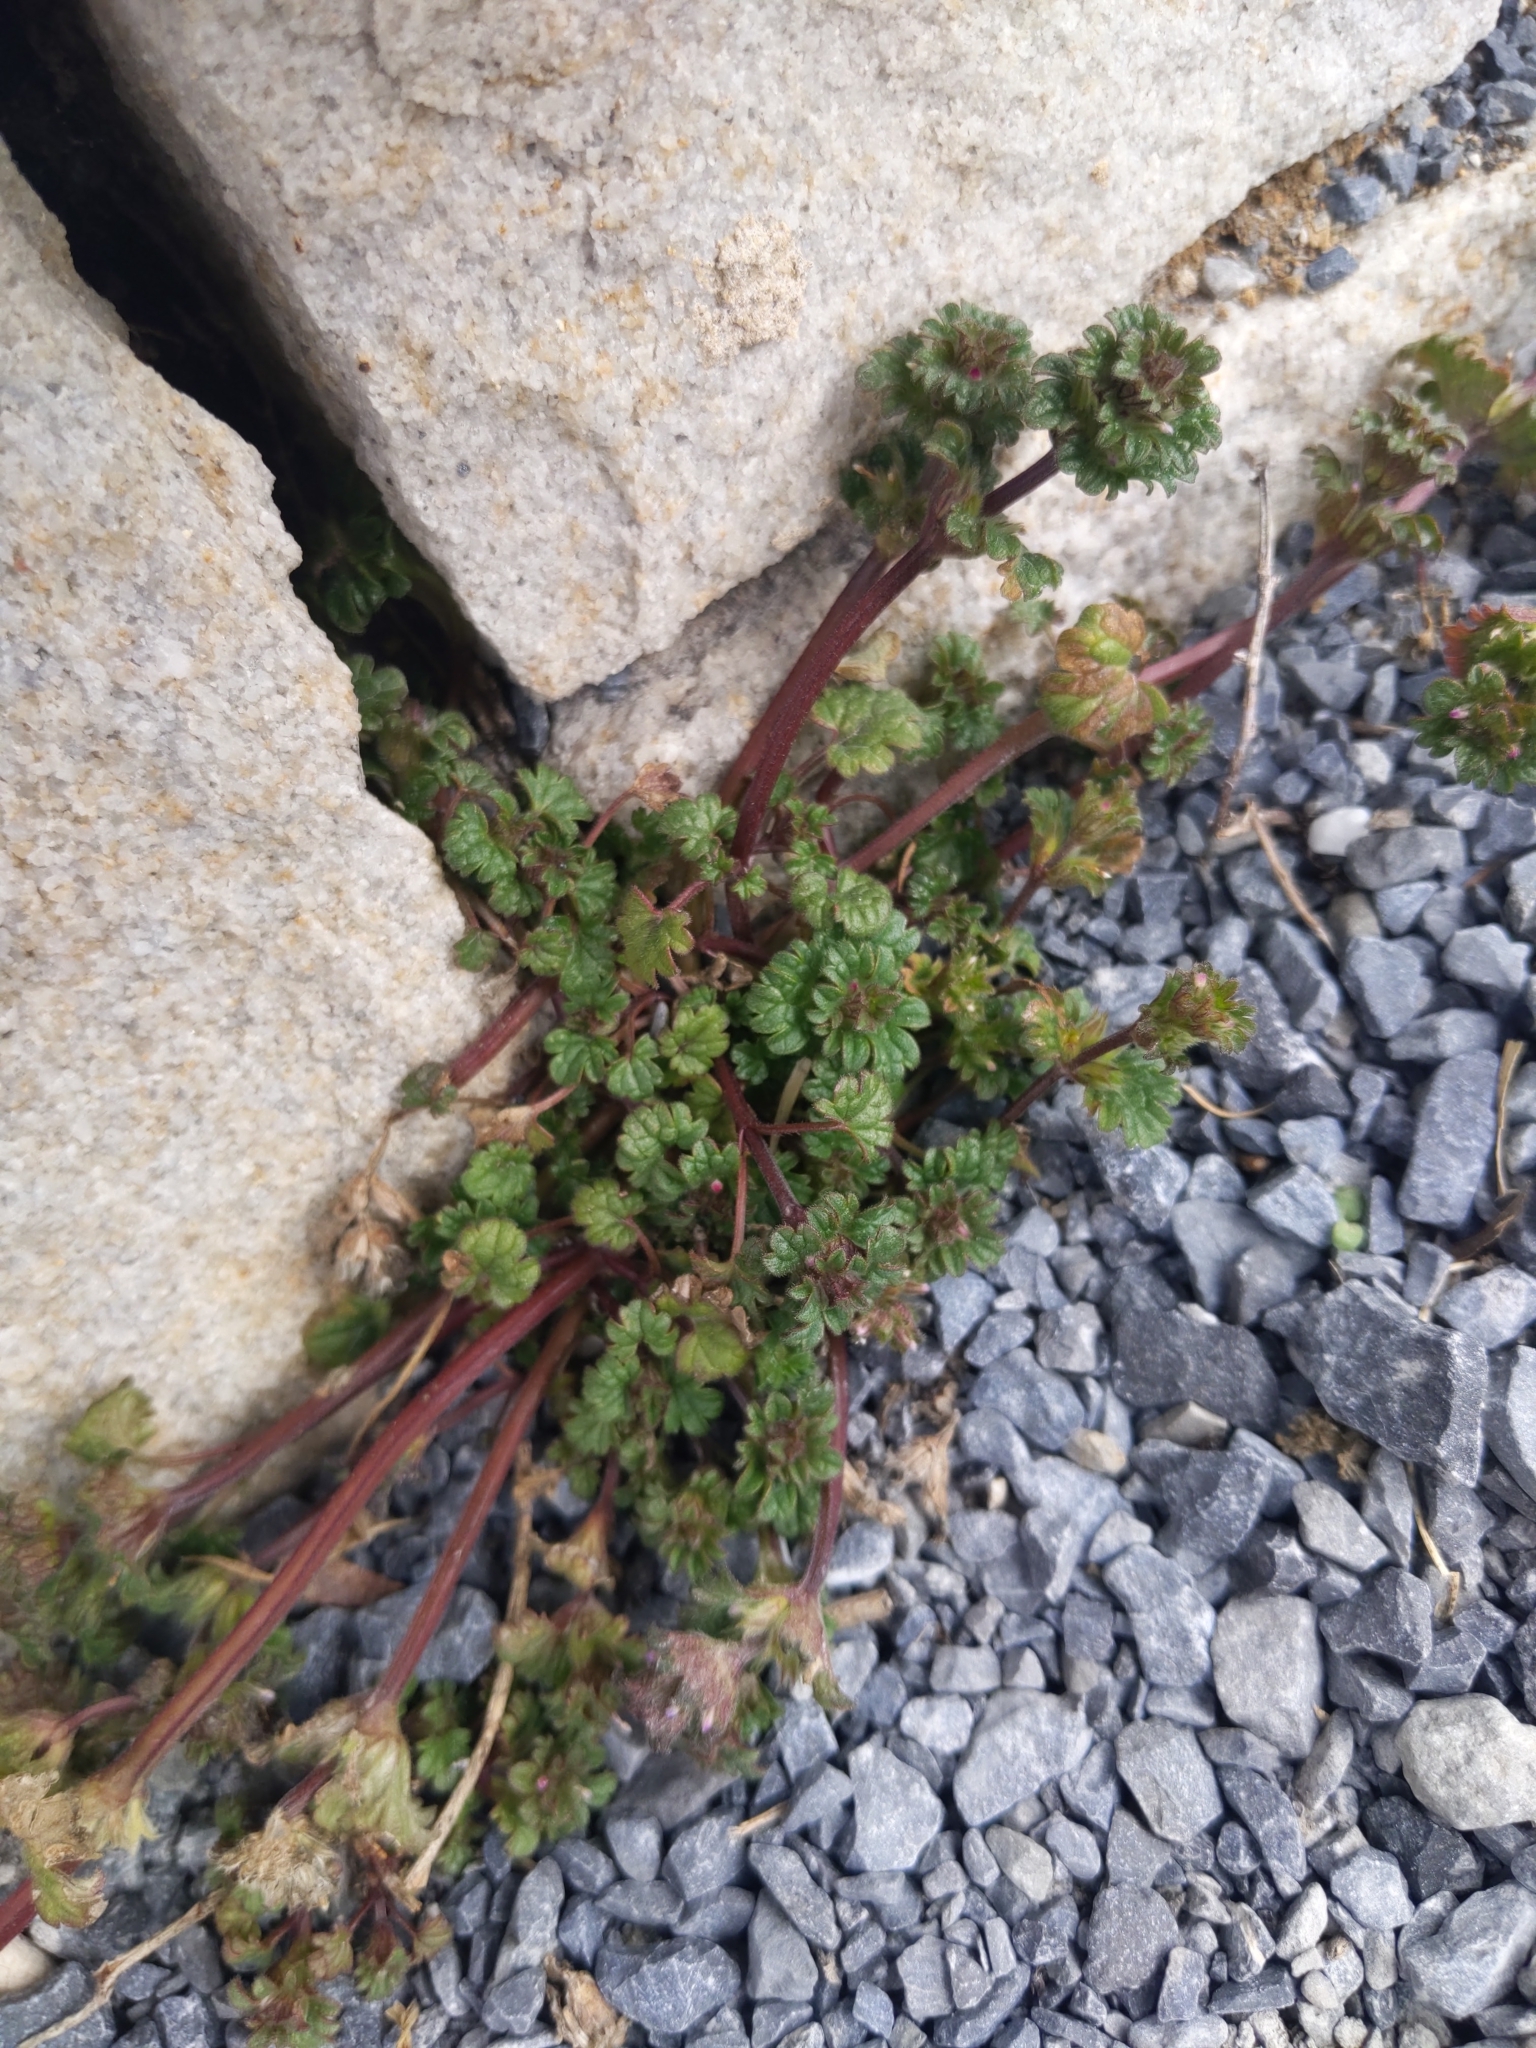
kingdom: Plantae
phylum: Tracheophyta
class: Magnoliopsida
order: Lamiales
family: Lamiaceae
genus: Lamium
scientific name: Lamium amplexicaule
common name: Henbit dead-nettle
